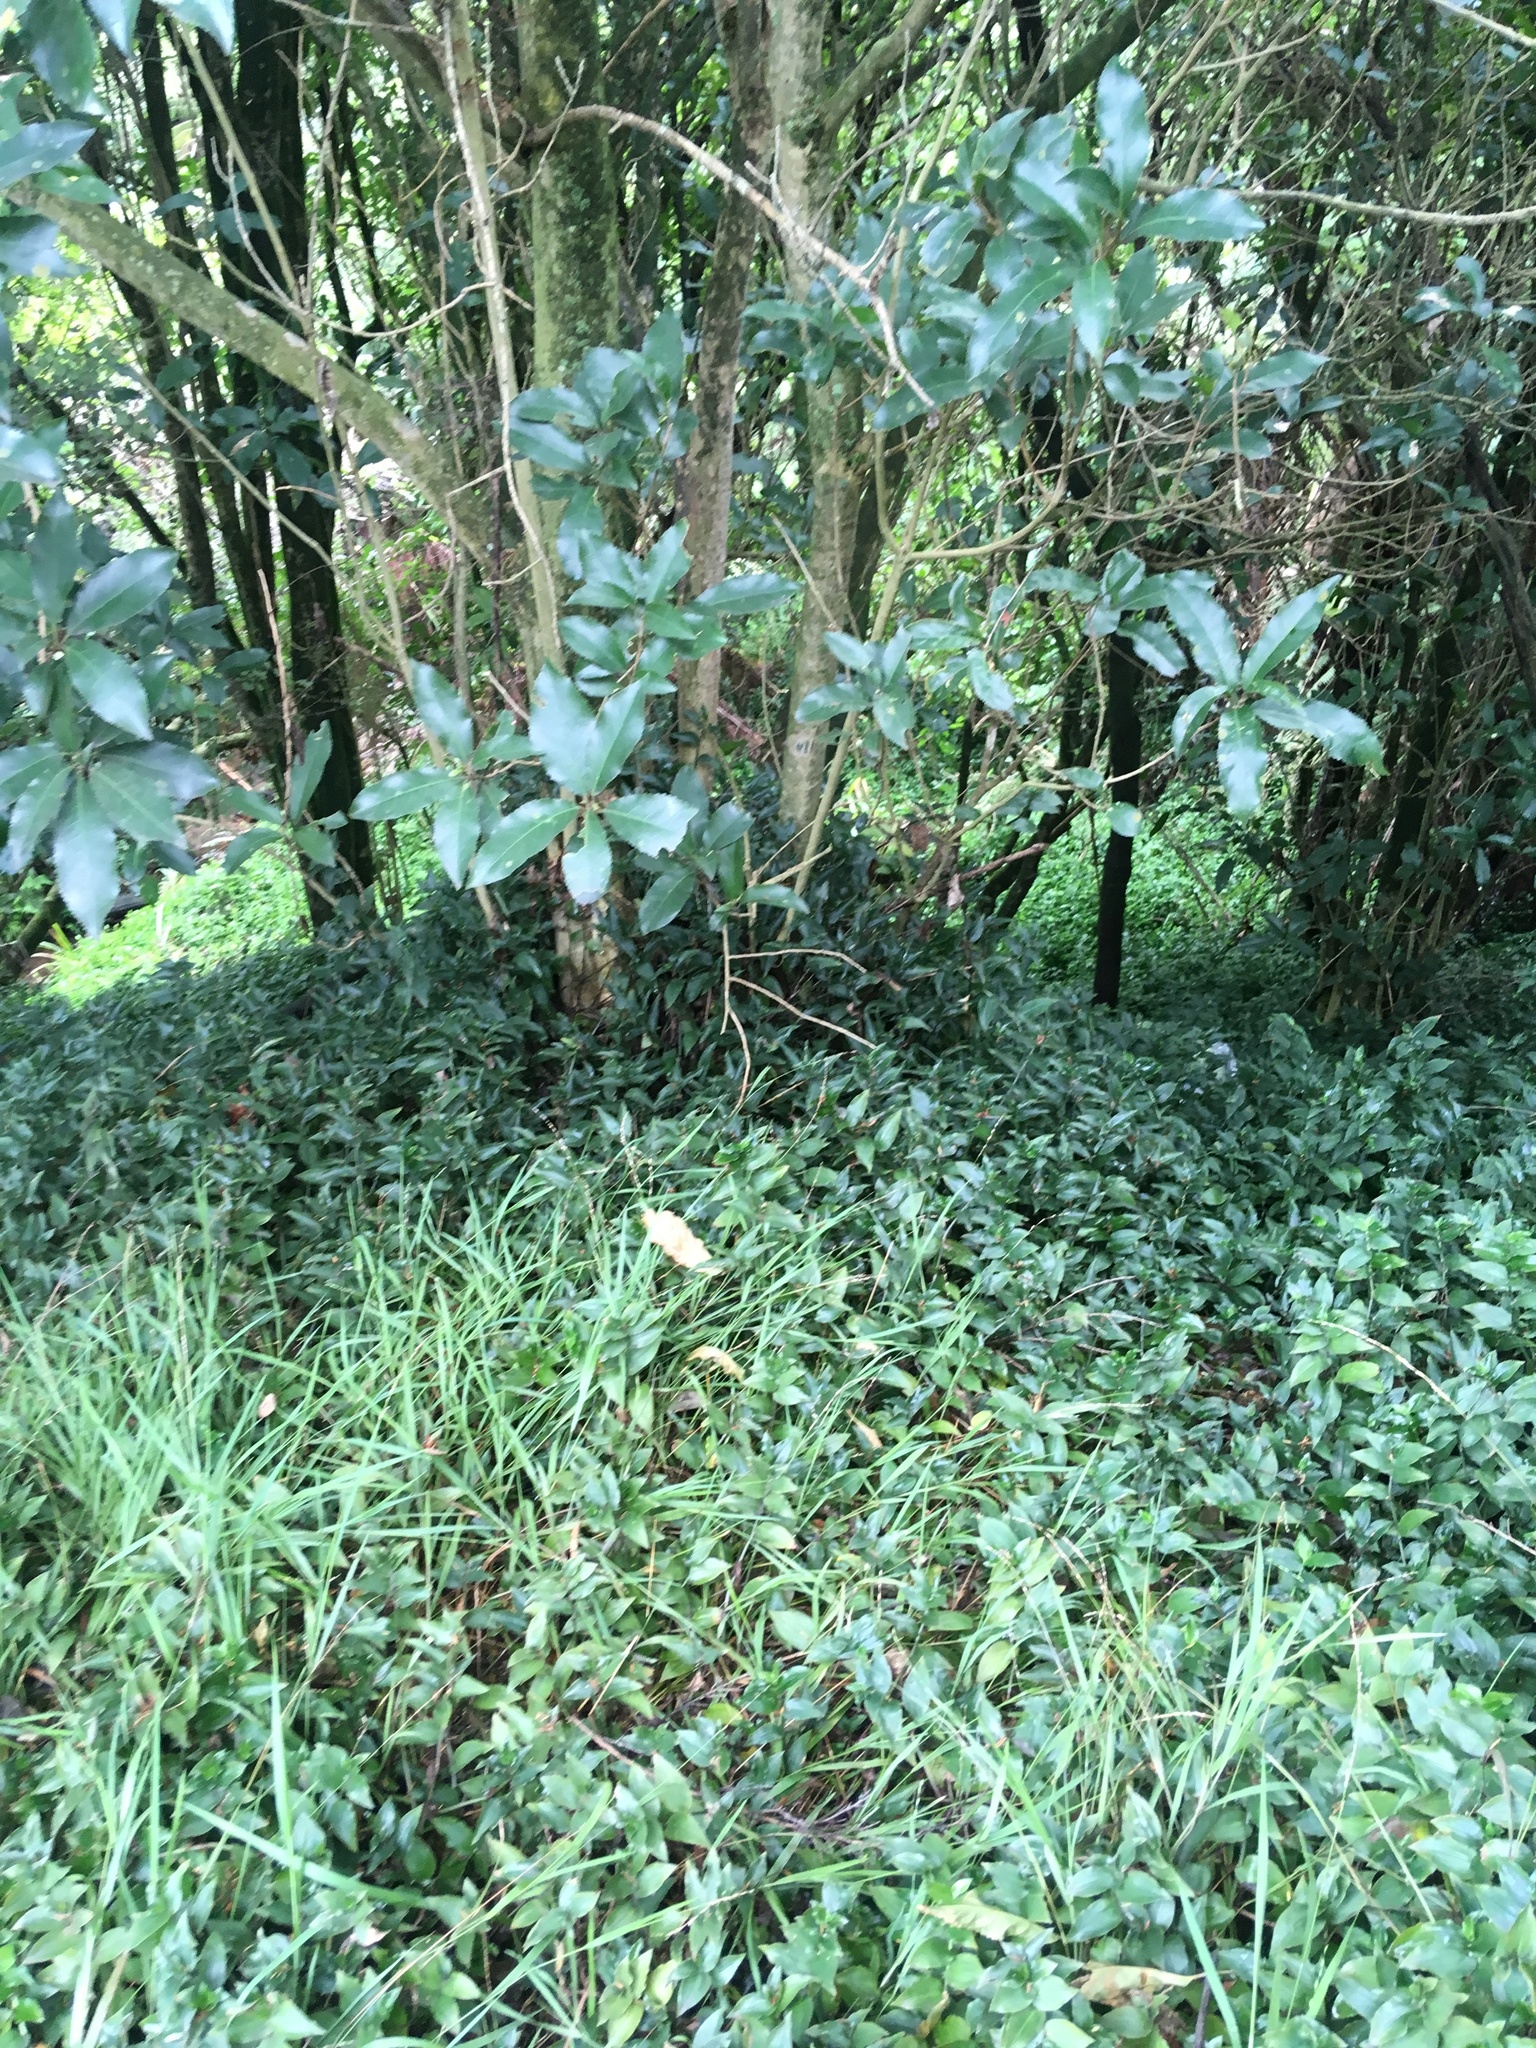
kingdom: Plantae
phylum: Tracheophyta
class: Liliopsida
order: Commelinales
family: Commelinaceae
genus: Tradescantia
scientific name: Tradescantia fluminensis
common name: Wandering-jew
